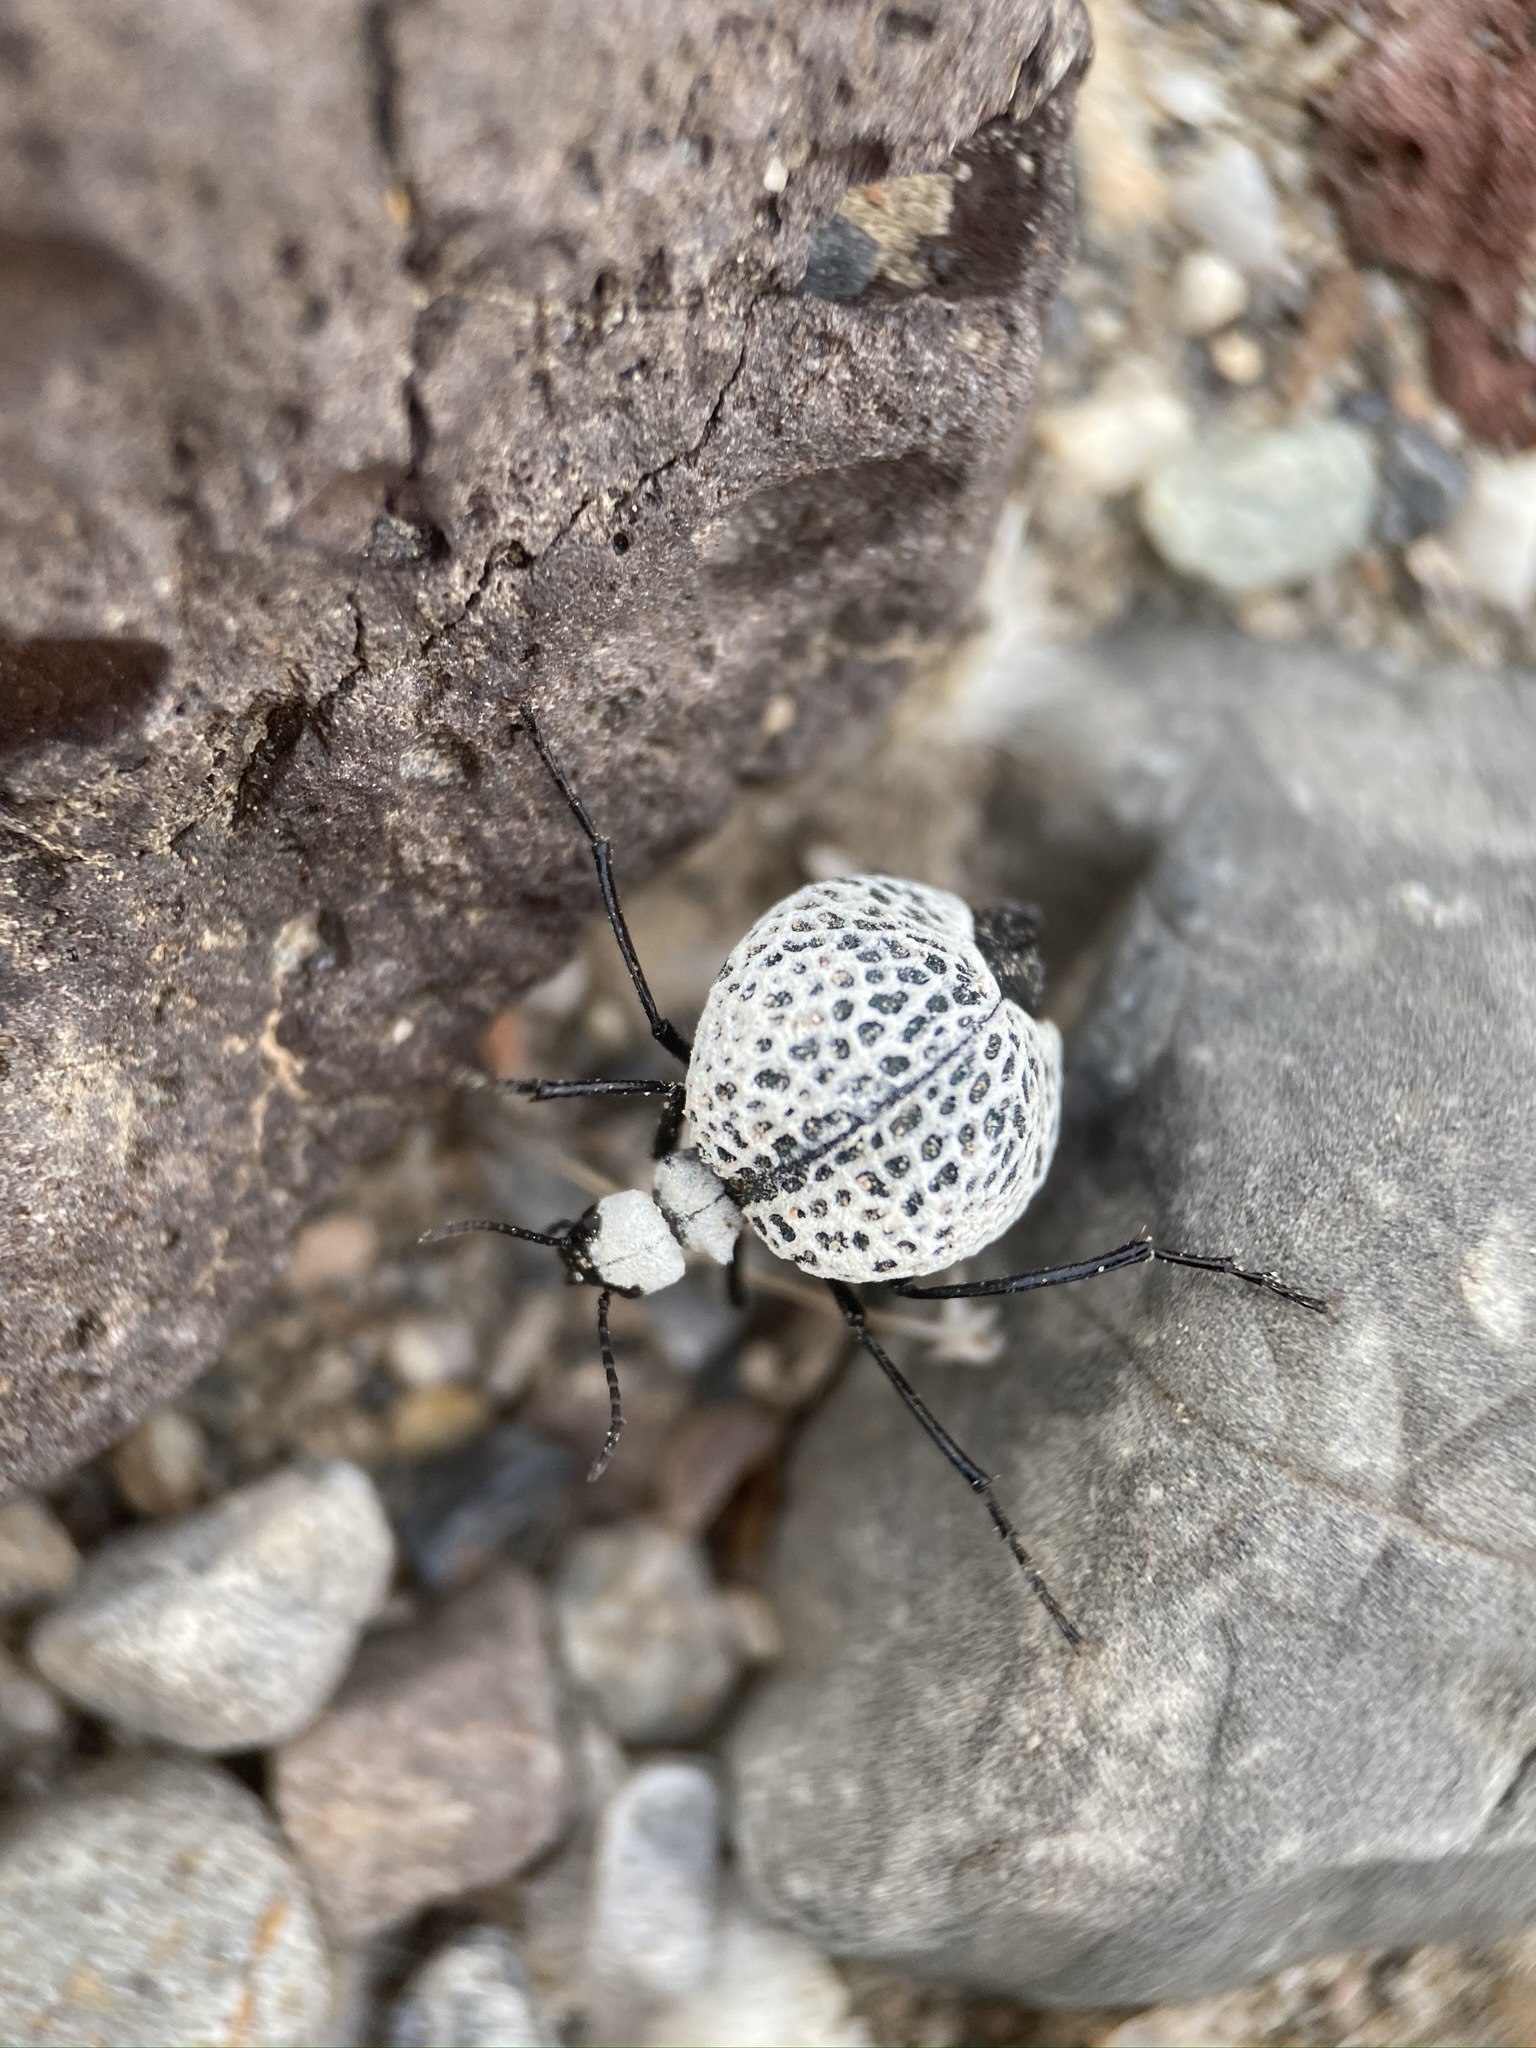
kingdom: Animalia
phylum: Arthropoda
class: Insecta
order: Coleoptera
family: Meloidae
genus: Cysteodemus
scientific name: Cysteodemus armatus
